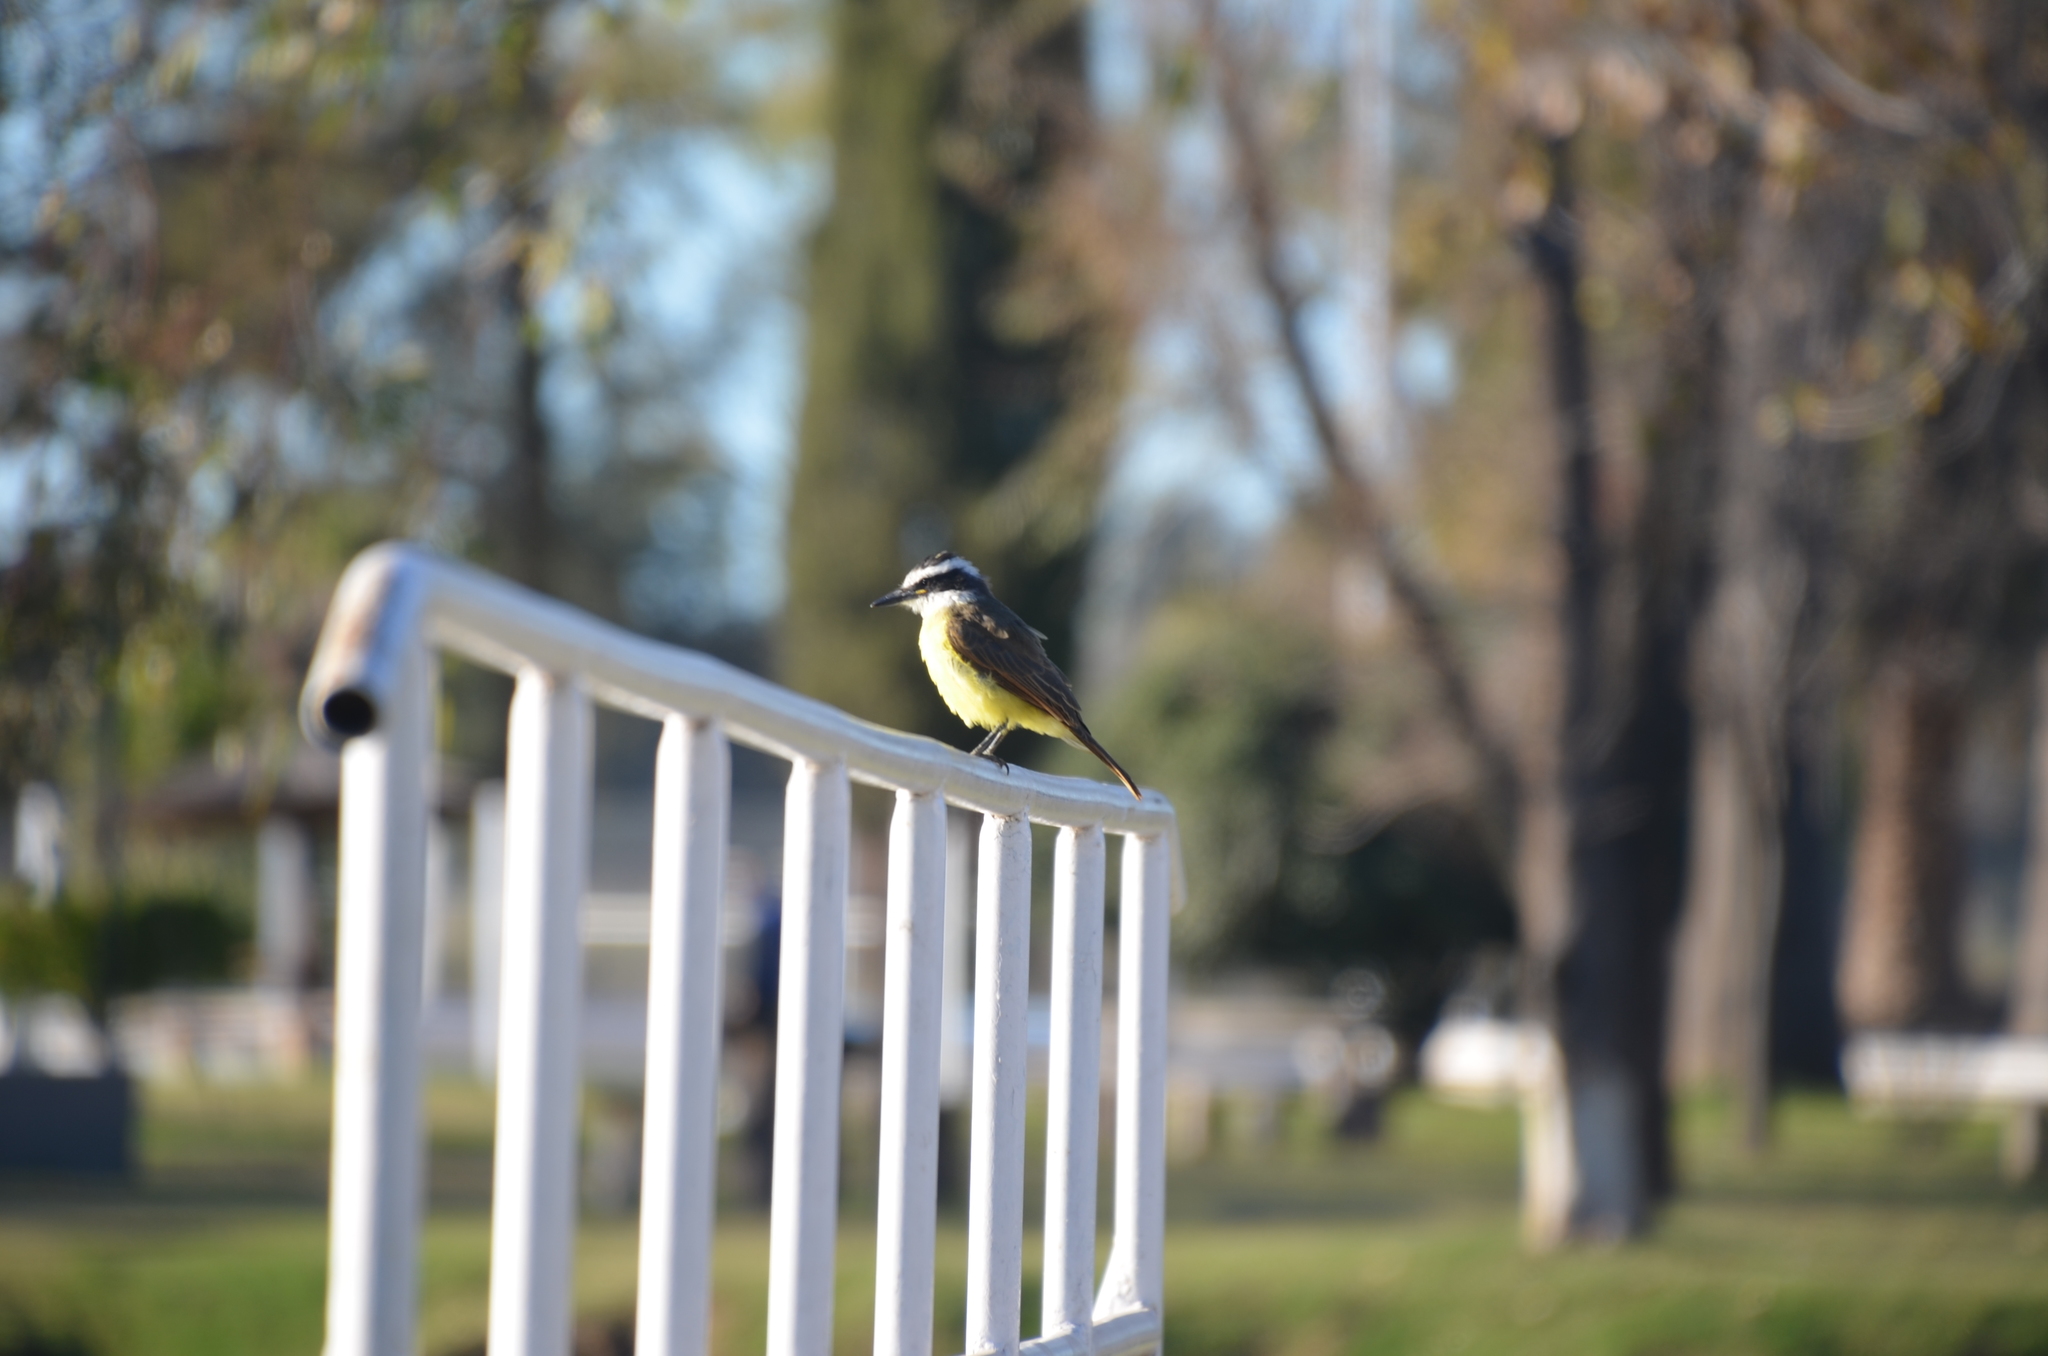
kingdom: Animalia
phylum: Chordata
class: Aves
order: Passeriformes
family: Tyrannidae
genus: Pitangus
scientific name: Pitangus sulphuratus
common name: Great kiskadee
